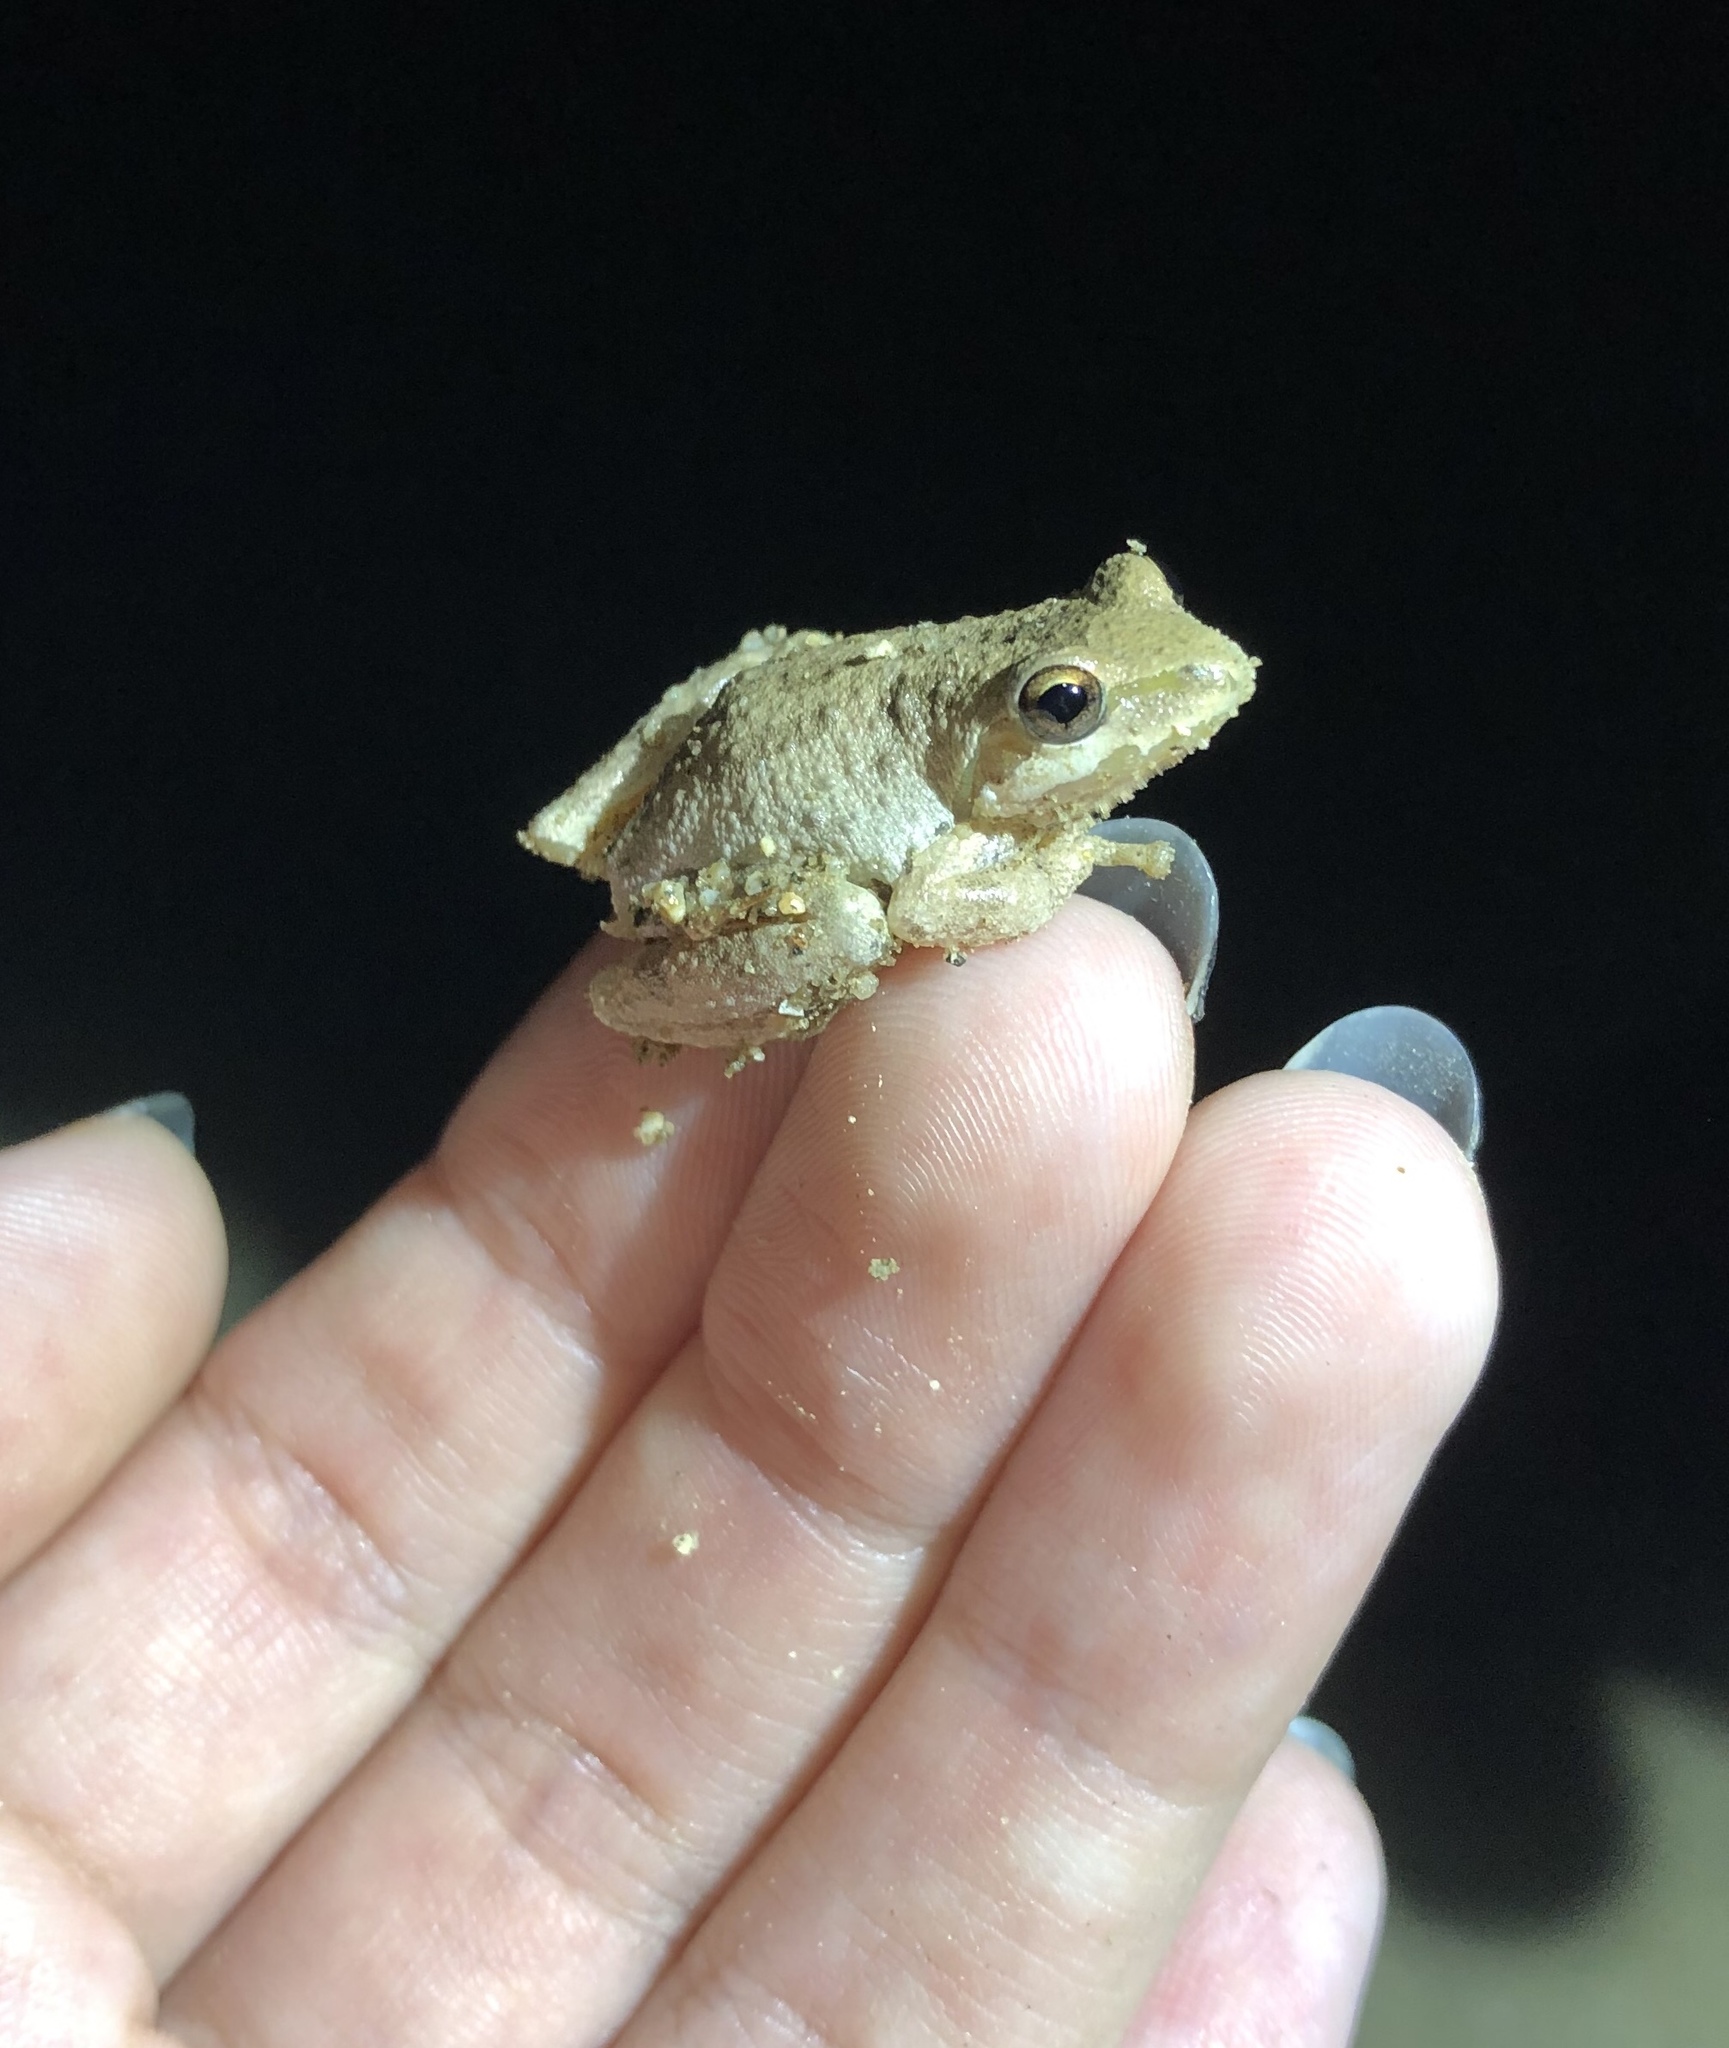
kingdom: Animalia
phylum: Chordata
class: Amphibia
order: Anura
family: Hylidae
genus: Pseudacris
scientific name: Pseudacris regilla
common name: Pacific chorus frog
